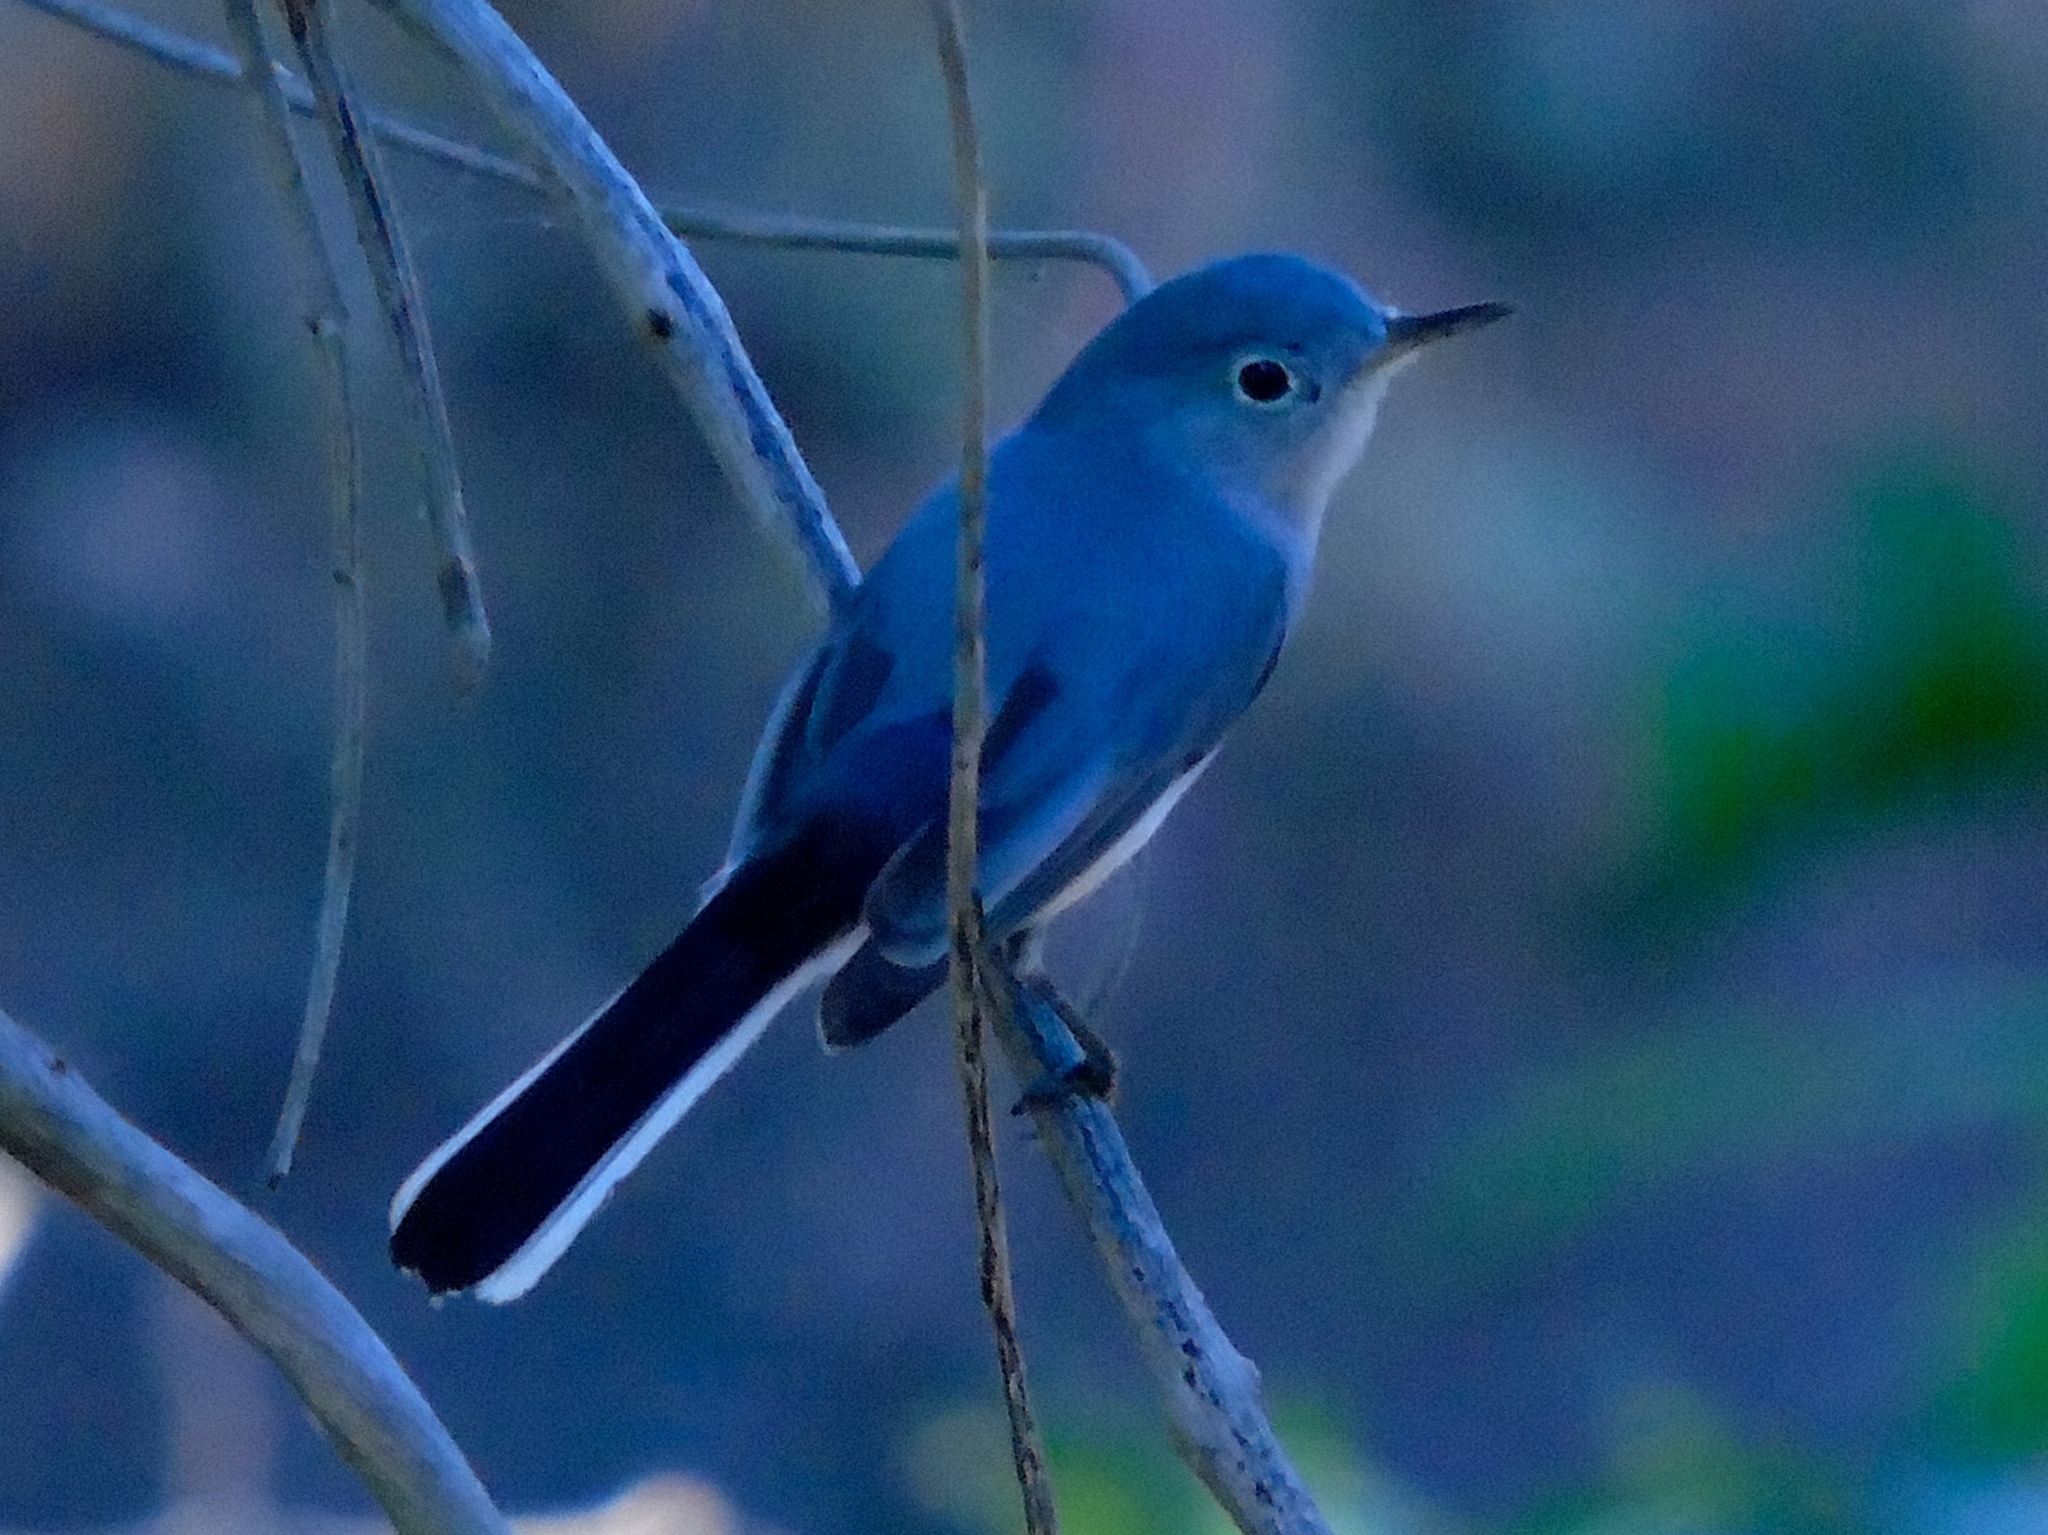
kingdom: Animalia
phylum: Chordata
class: Aves
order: Passeriformes
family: Polioptilidae
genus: Polioptila
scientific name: Polioptila caerulea
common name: Blue-gray gnatcatcher
